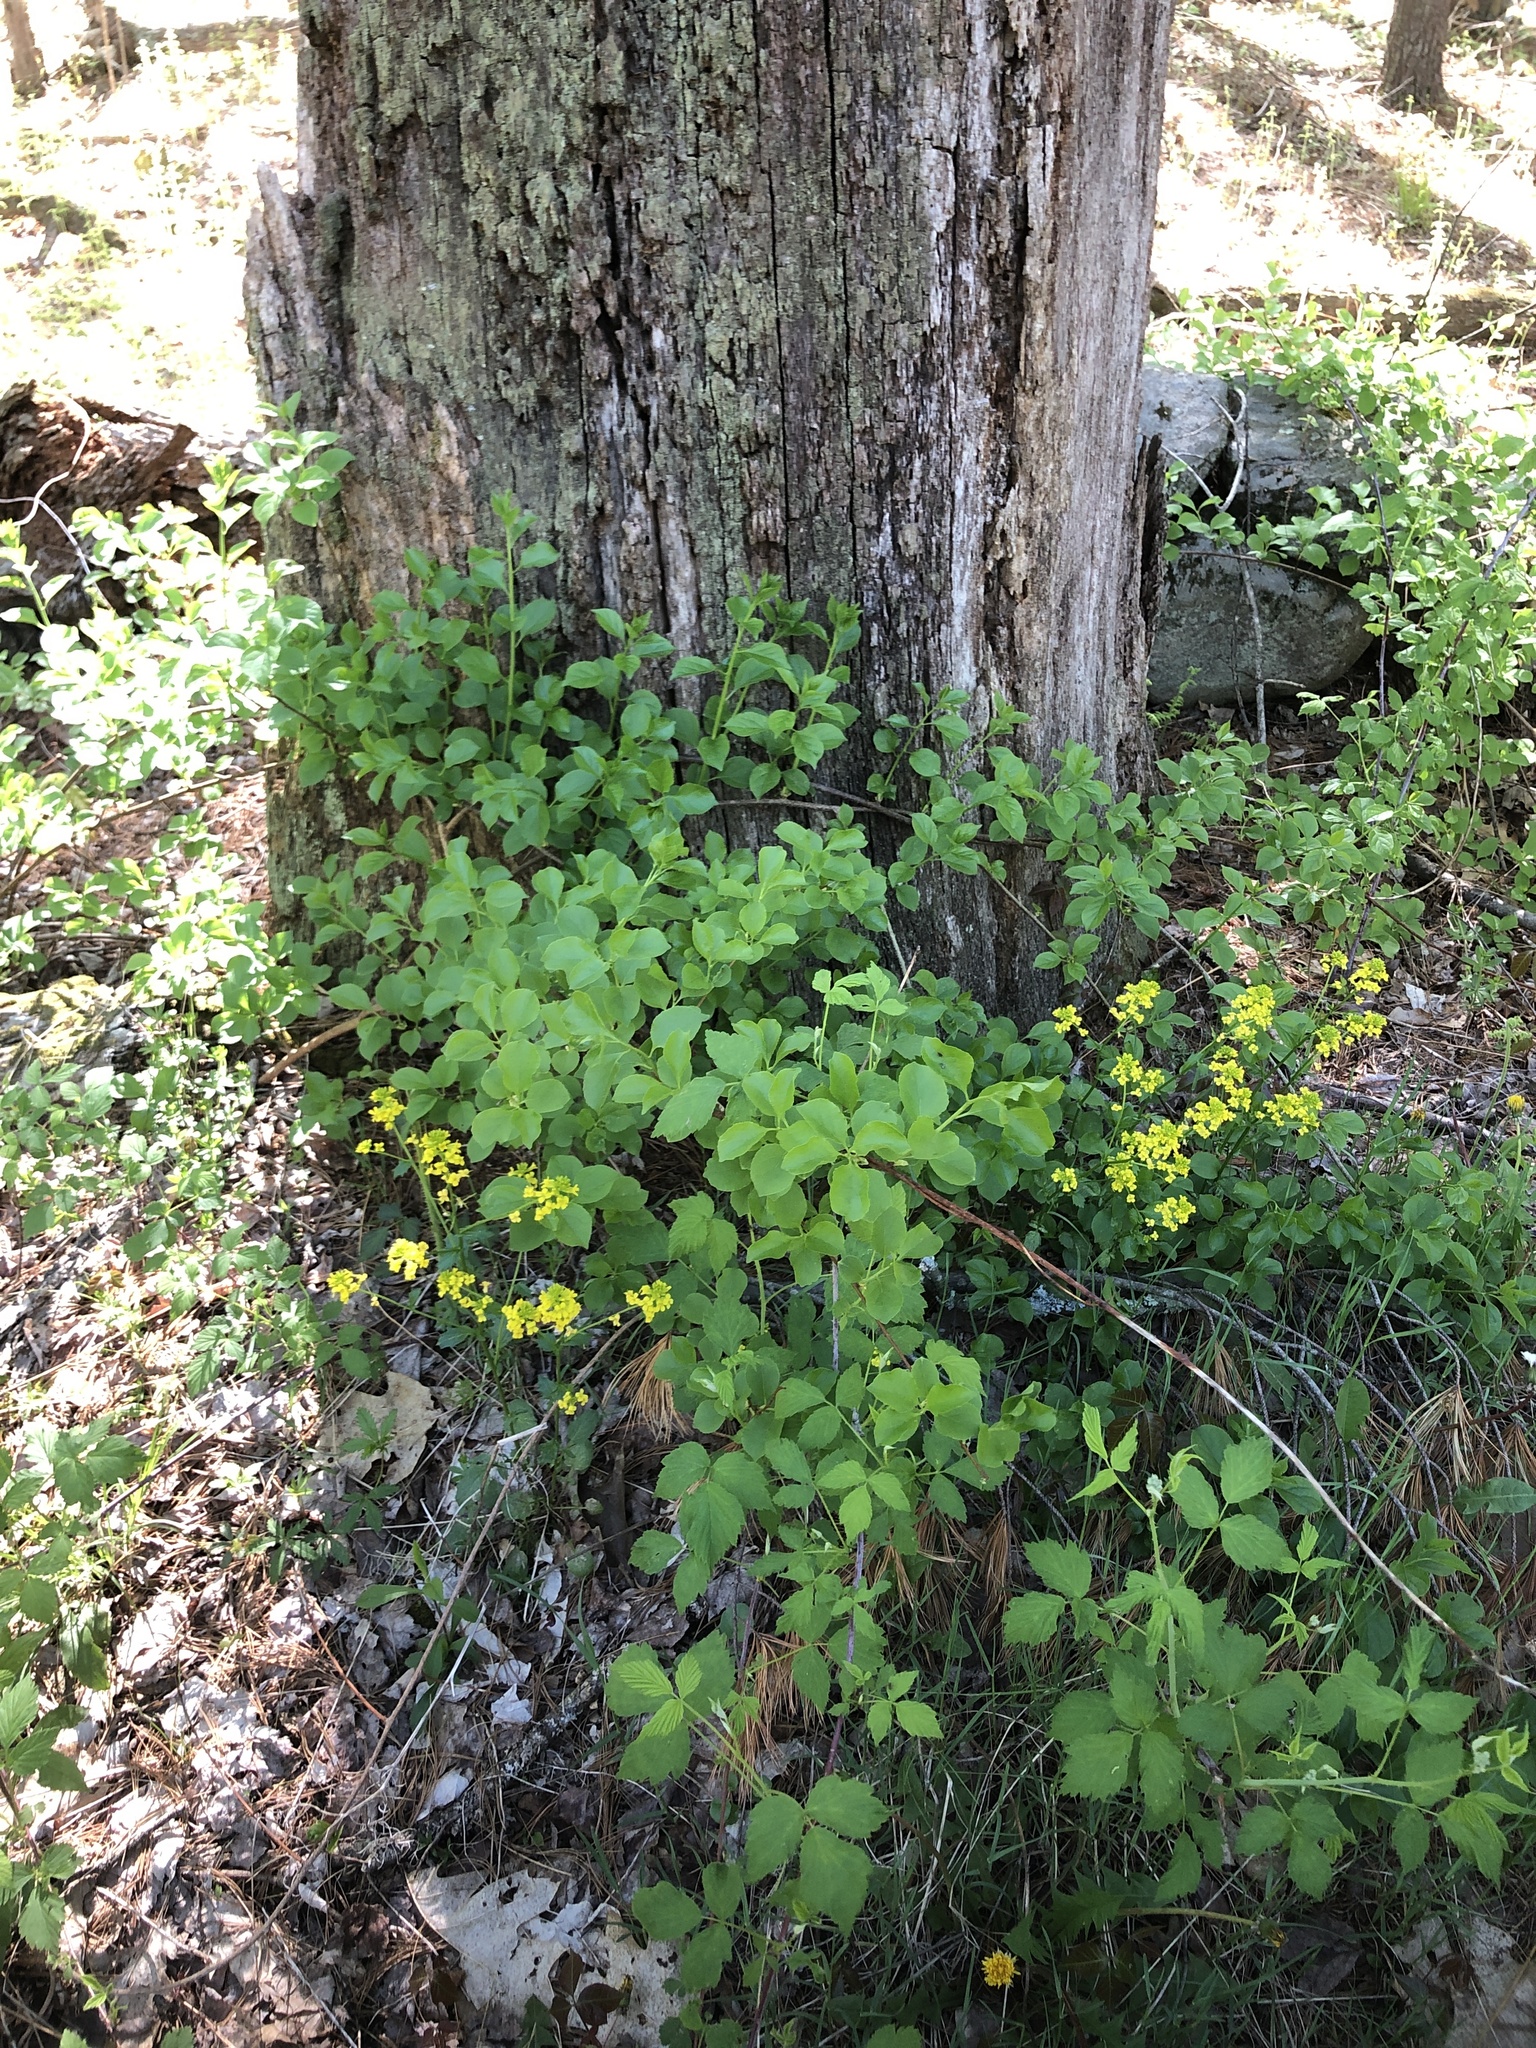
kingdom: Plantae
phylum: Tracheophyta
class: Magnoliopsida
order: Brassicales
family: Brassicaceae
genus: Barbarea
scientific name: Barbarea vulgaris
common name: Cressy-greens
